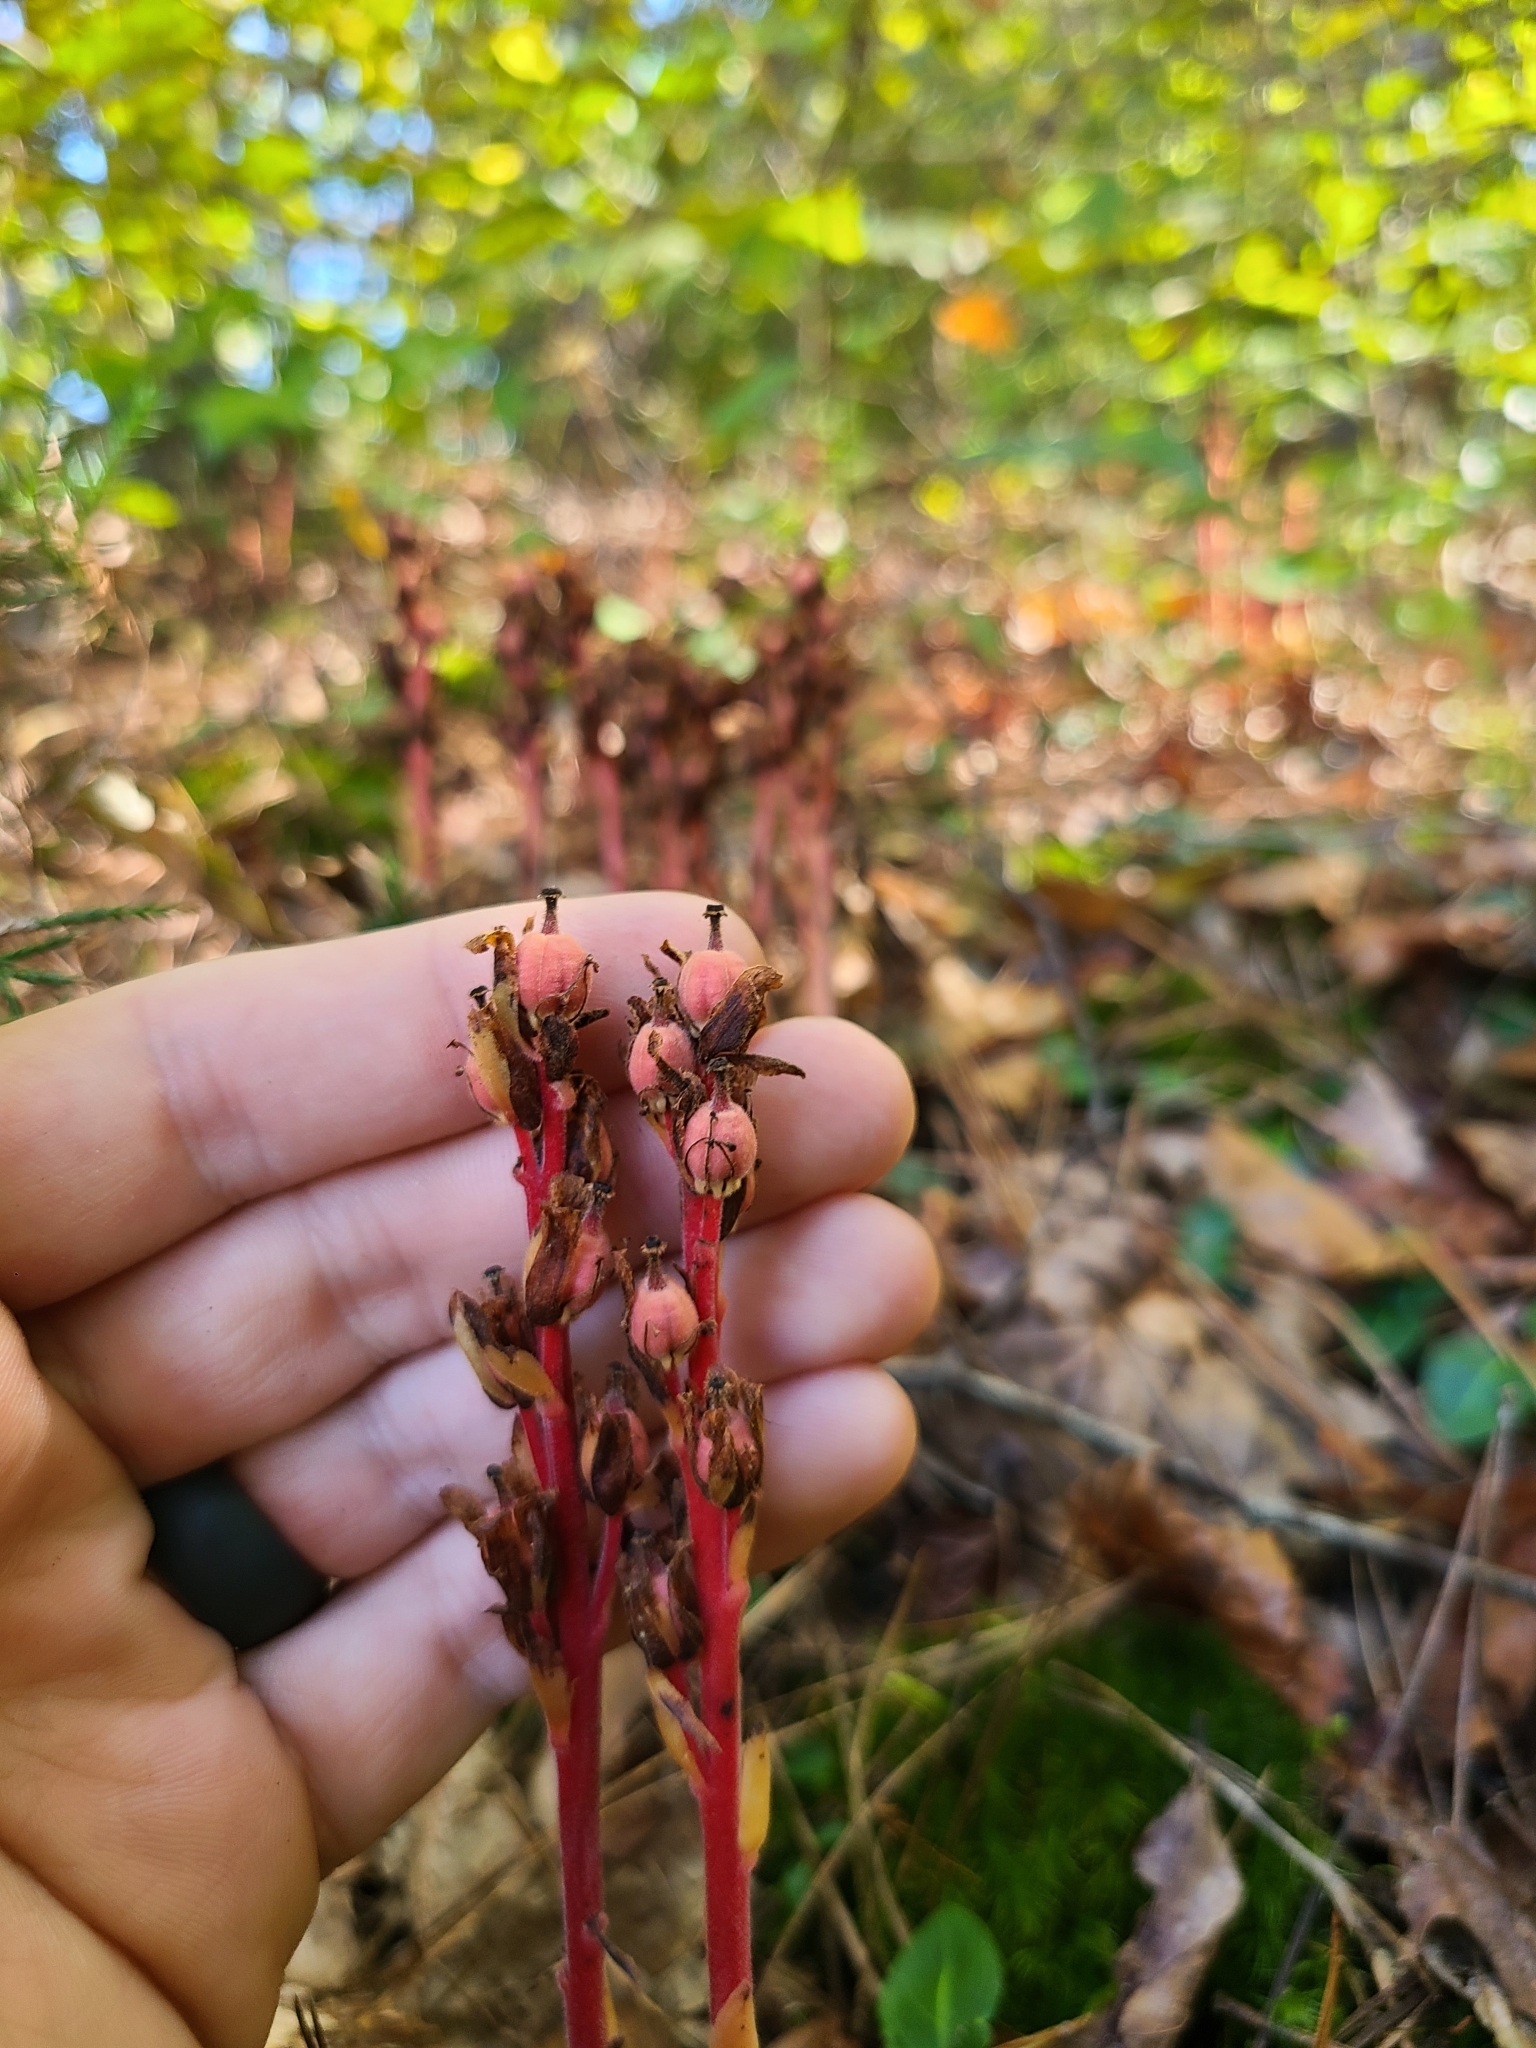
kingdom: Plantae
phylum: Tracheophyta
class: Magnoliopsida
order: Ericales
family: Ericaceae
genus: Hypopitys
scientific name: Hypopitys monotropa
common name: Yellow bird's-nest
